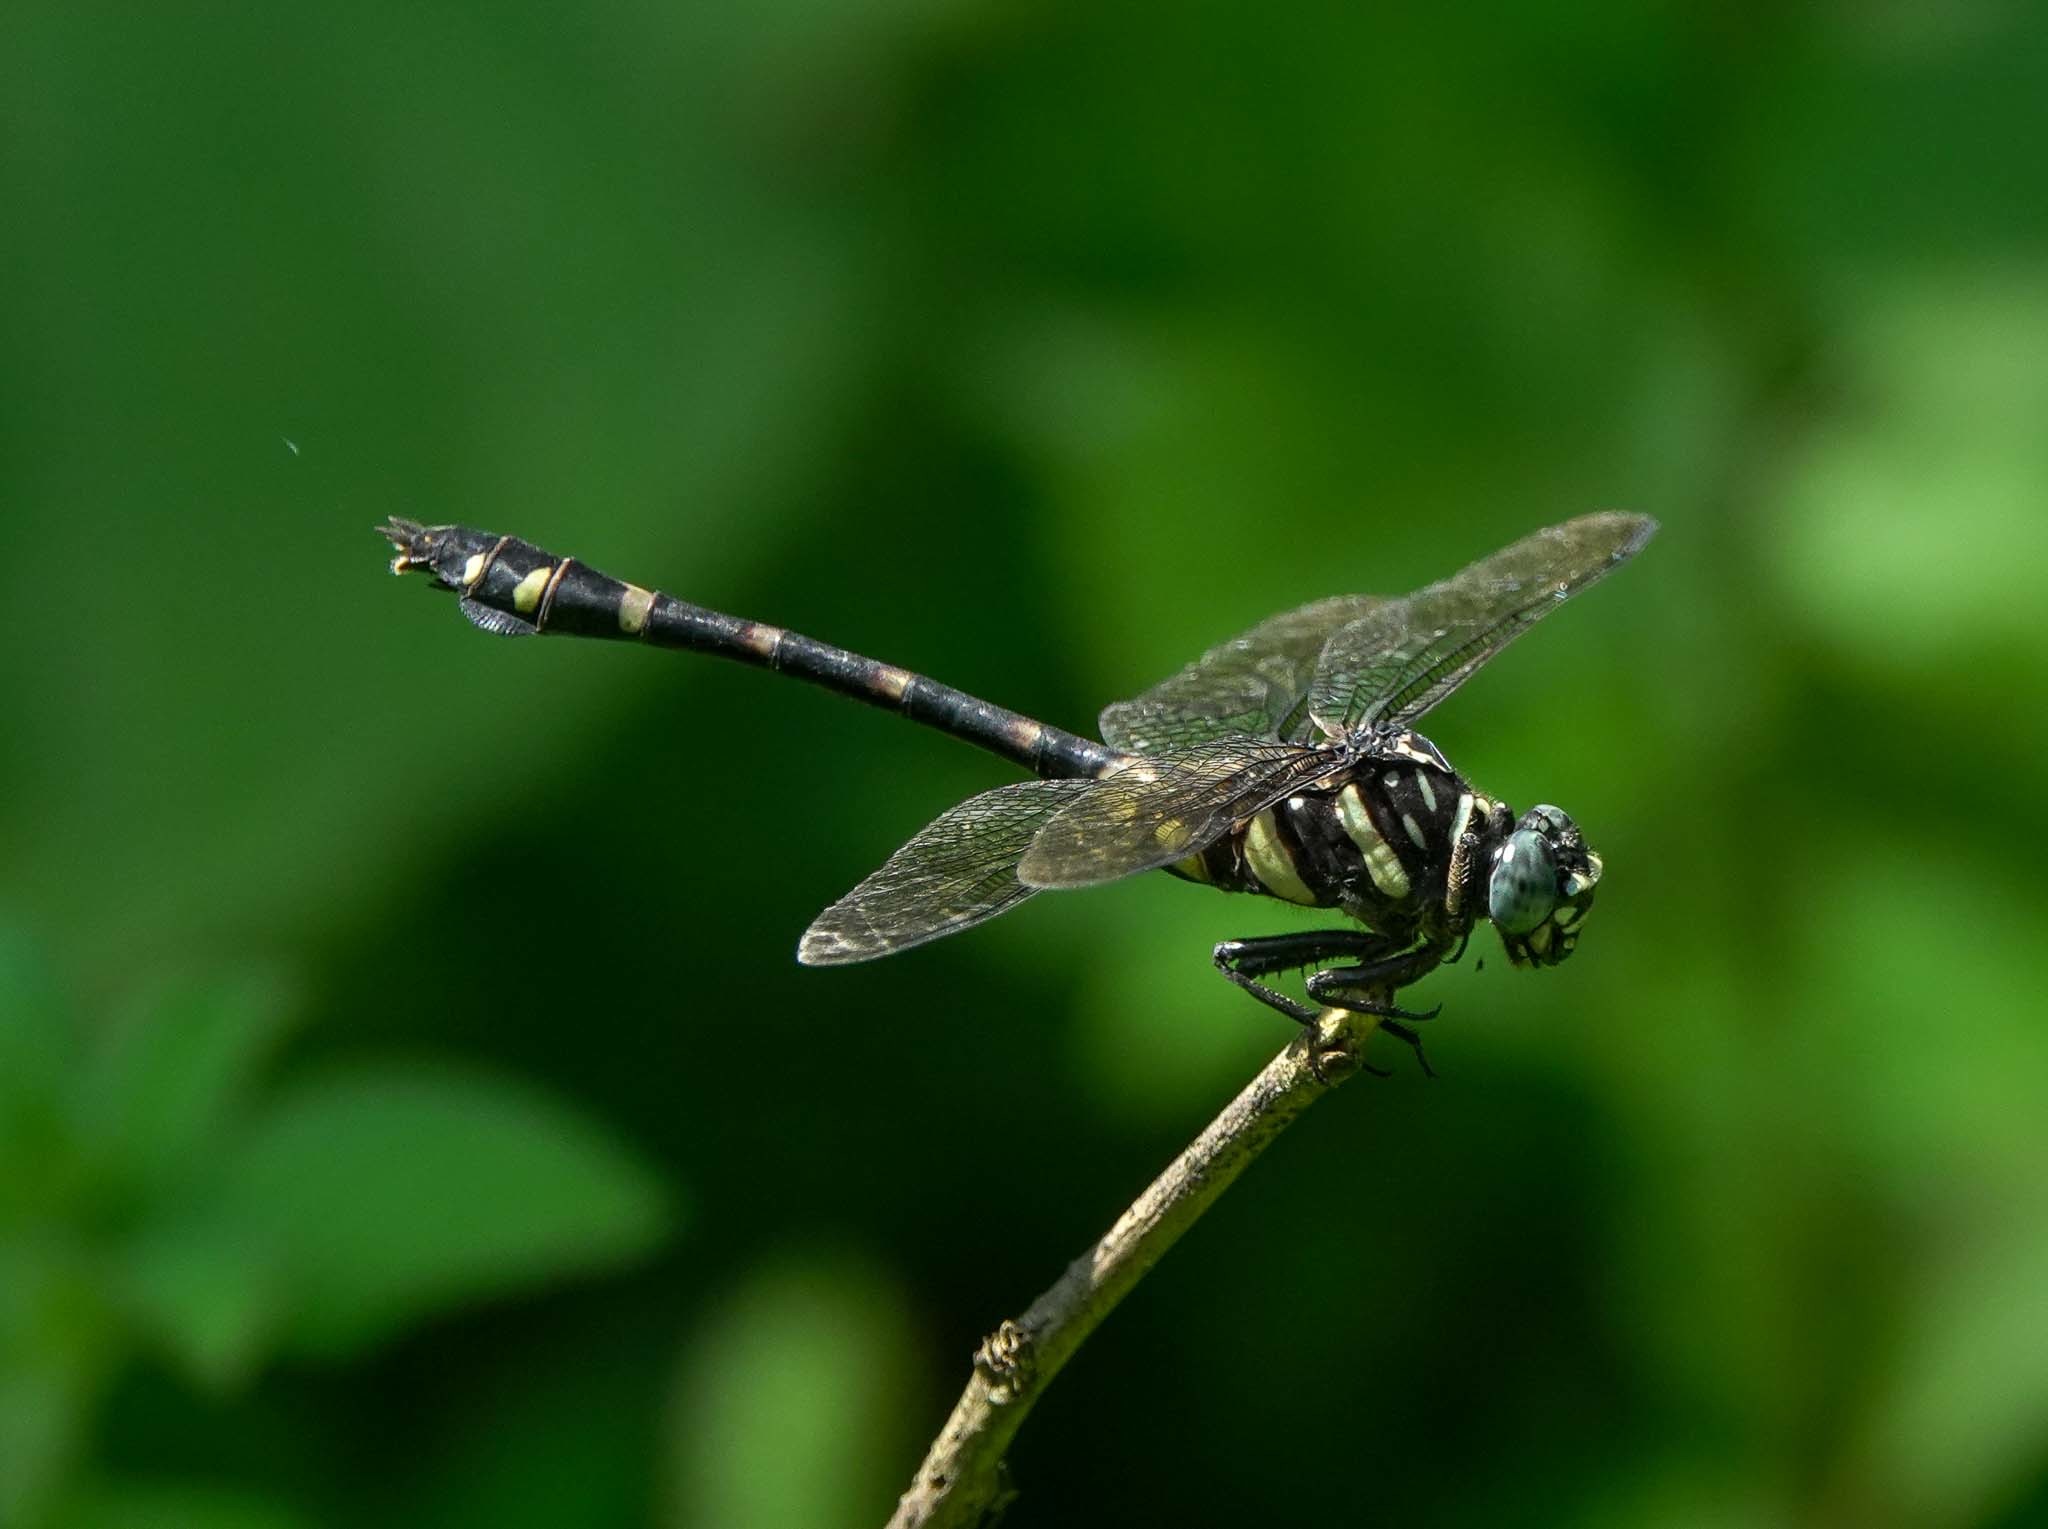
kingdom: Animalia
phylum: Arthropoda
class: Insecta
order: Odonata
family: Gomphidae
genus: Ictinogomphus
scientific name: Ictinogomphus decoratus
